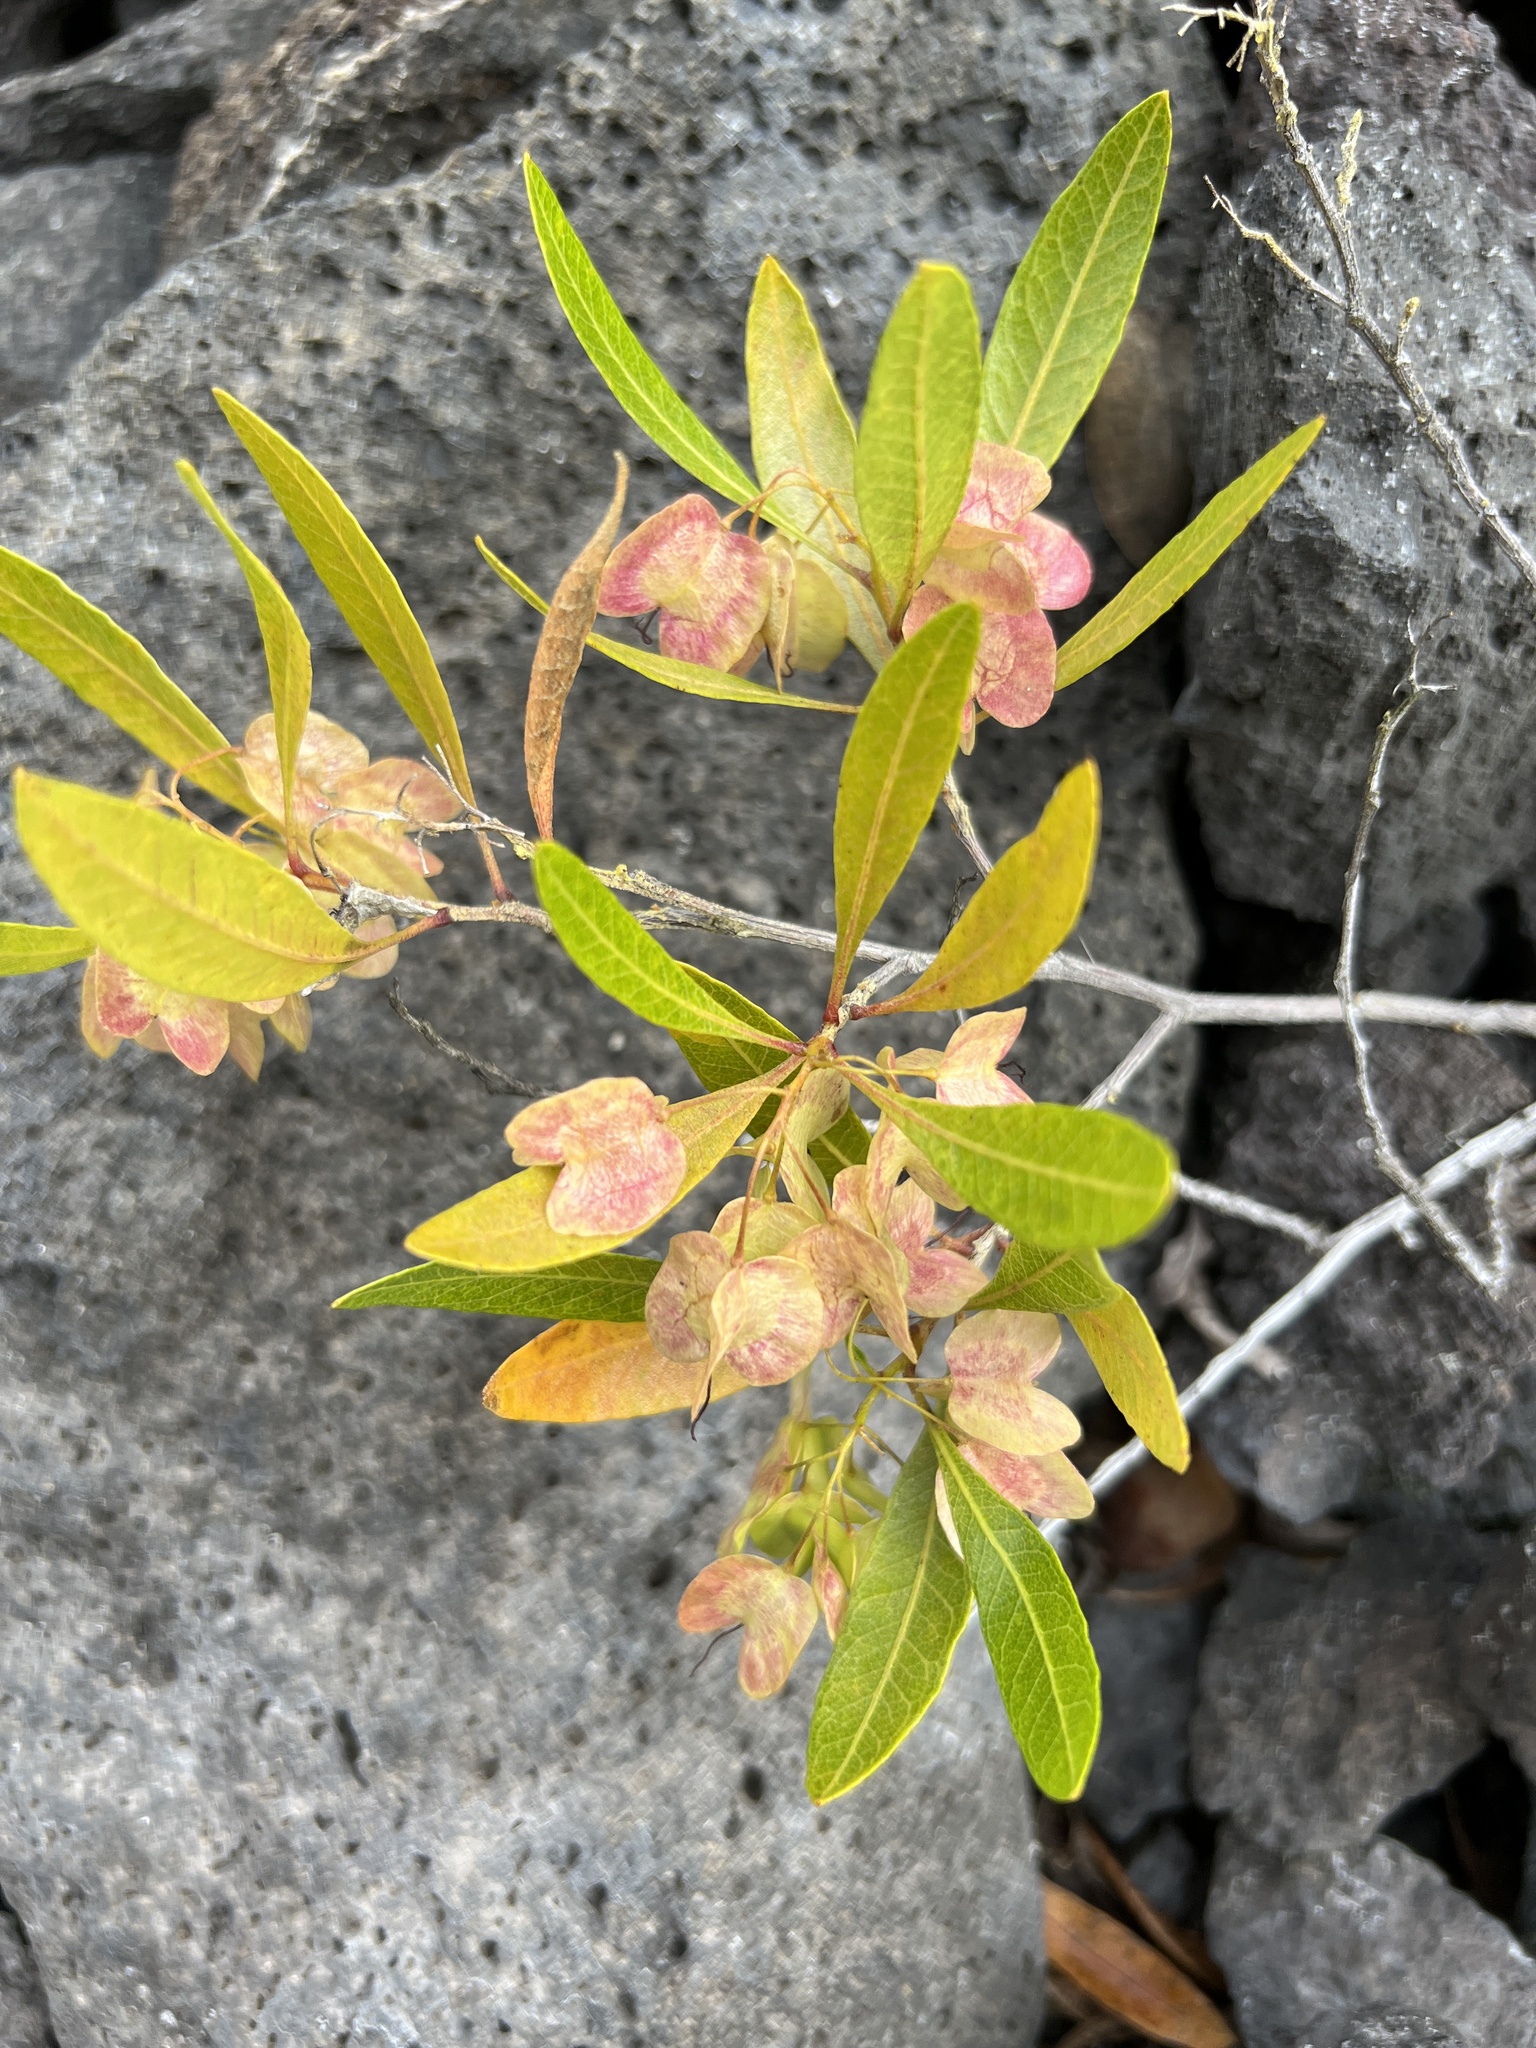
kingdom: Plantae
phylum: Tracheophyta
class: Magnoliopsida
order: Sapindales
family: Sapindaceae
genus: Dodonaea
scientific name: Dodonaea viscosa
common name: Hopbush
